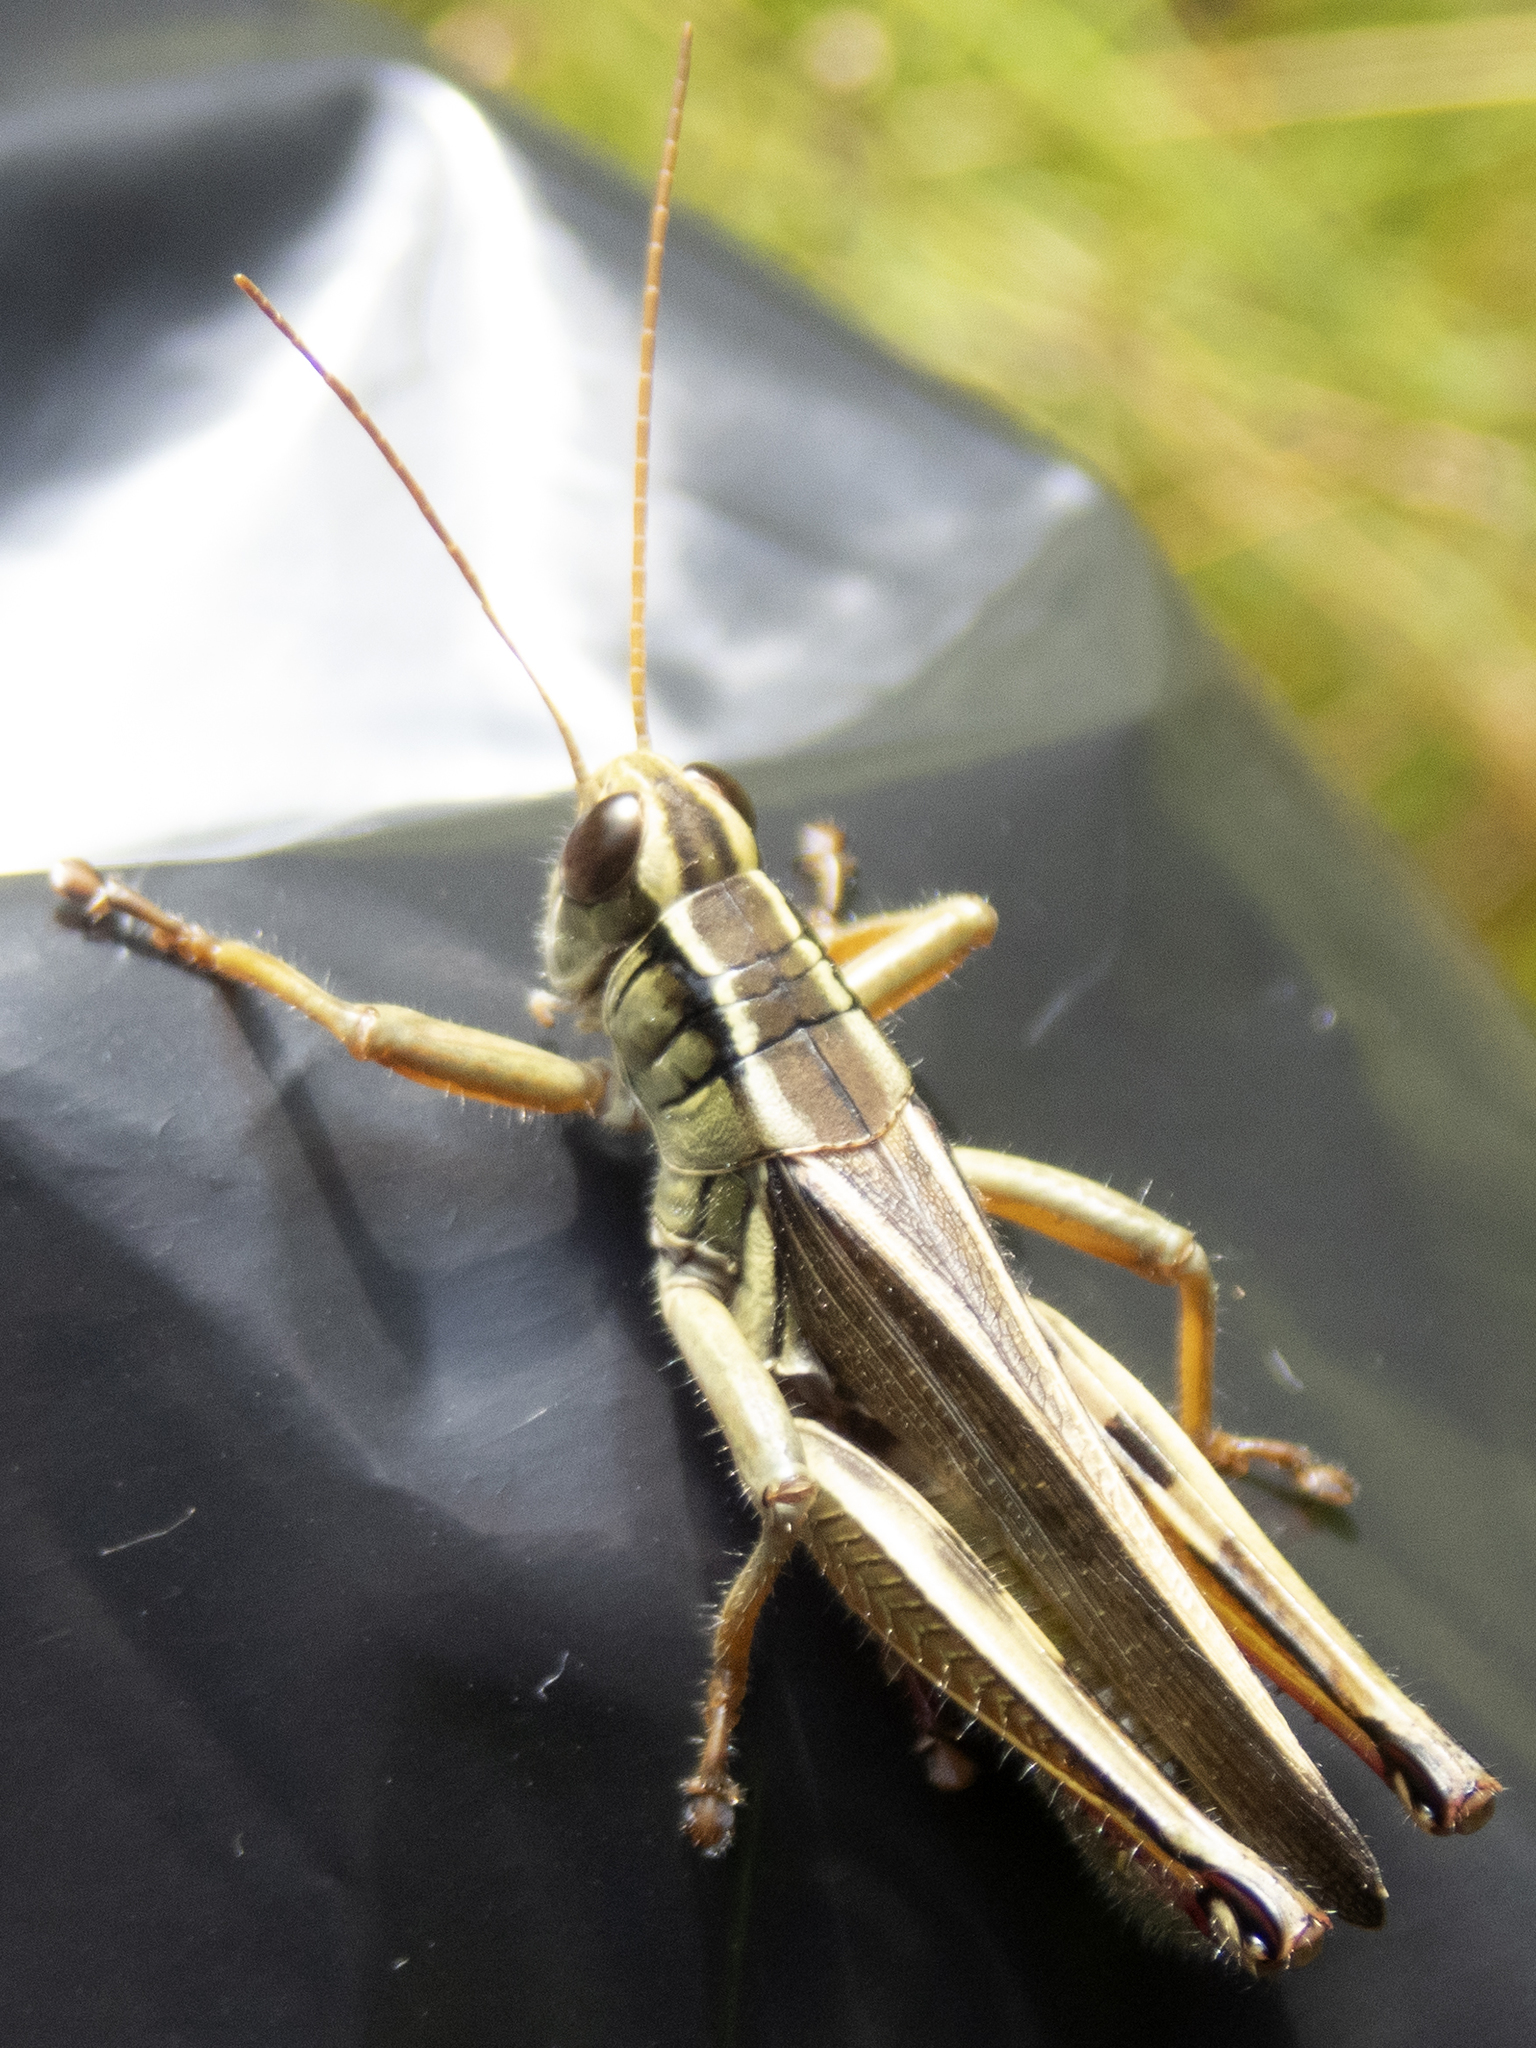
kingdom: Animalia
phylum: Arthropoda
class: Insecta
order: Orthoptera
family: Acrididae
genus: Melanoplus
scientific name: Melanoplus bivittatus
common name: Two-striped grasshopper
